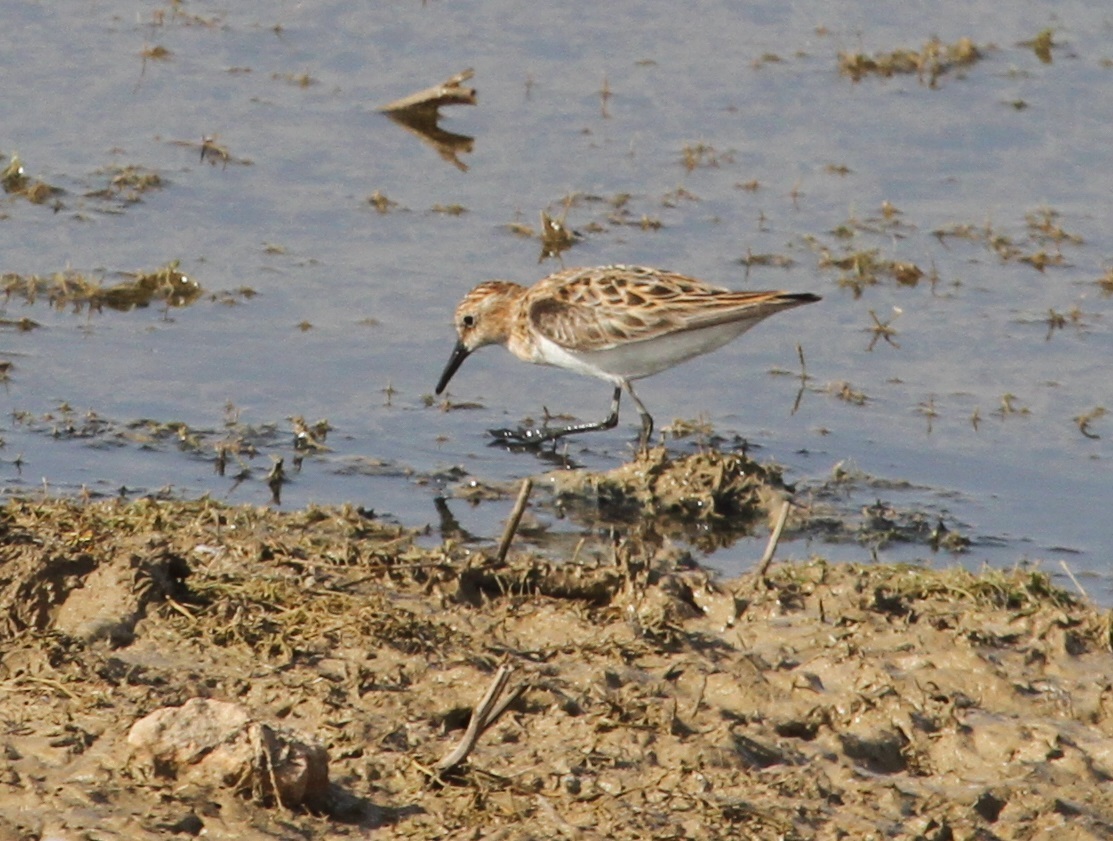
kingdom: Animalia
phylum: Chordata
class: Aves
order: Charadriiformes
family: Scolopacidae
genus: Calidris
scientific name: Calidris minuta
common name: Little stint
